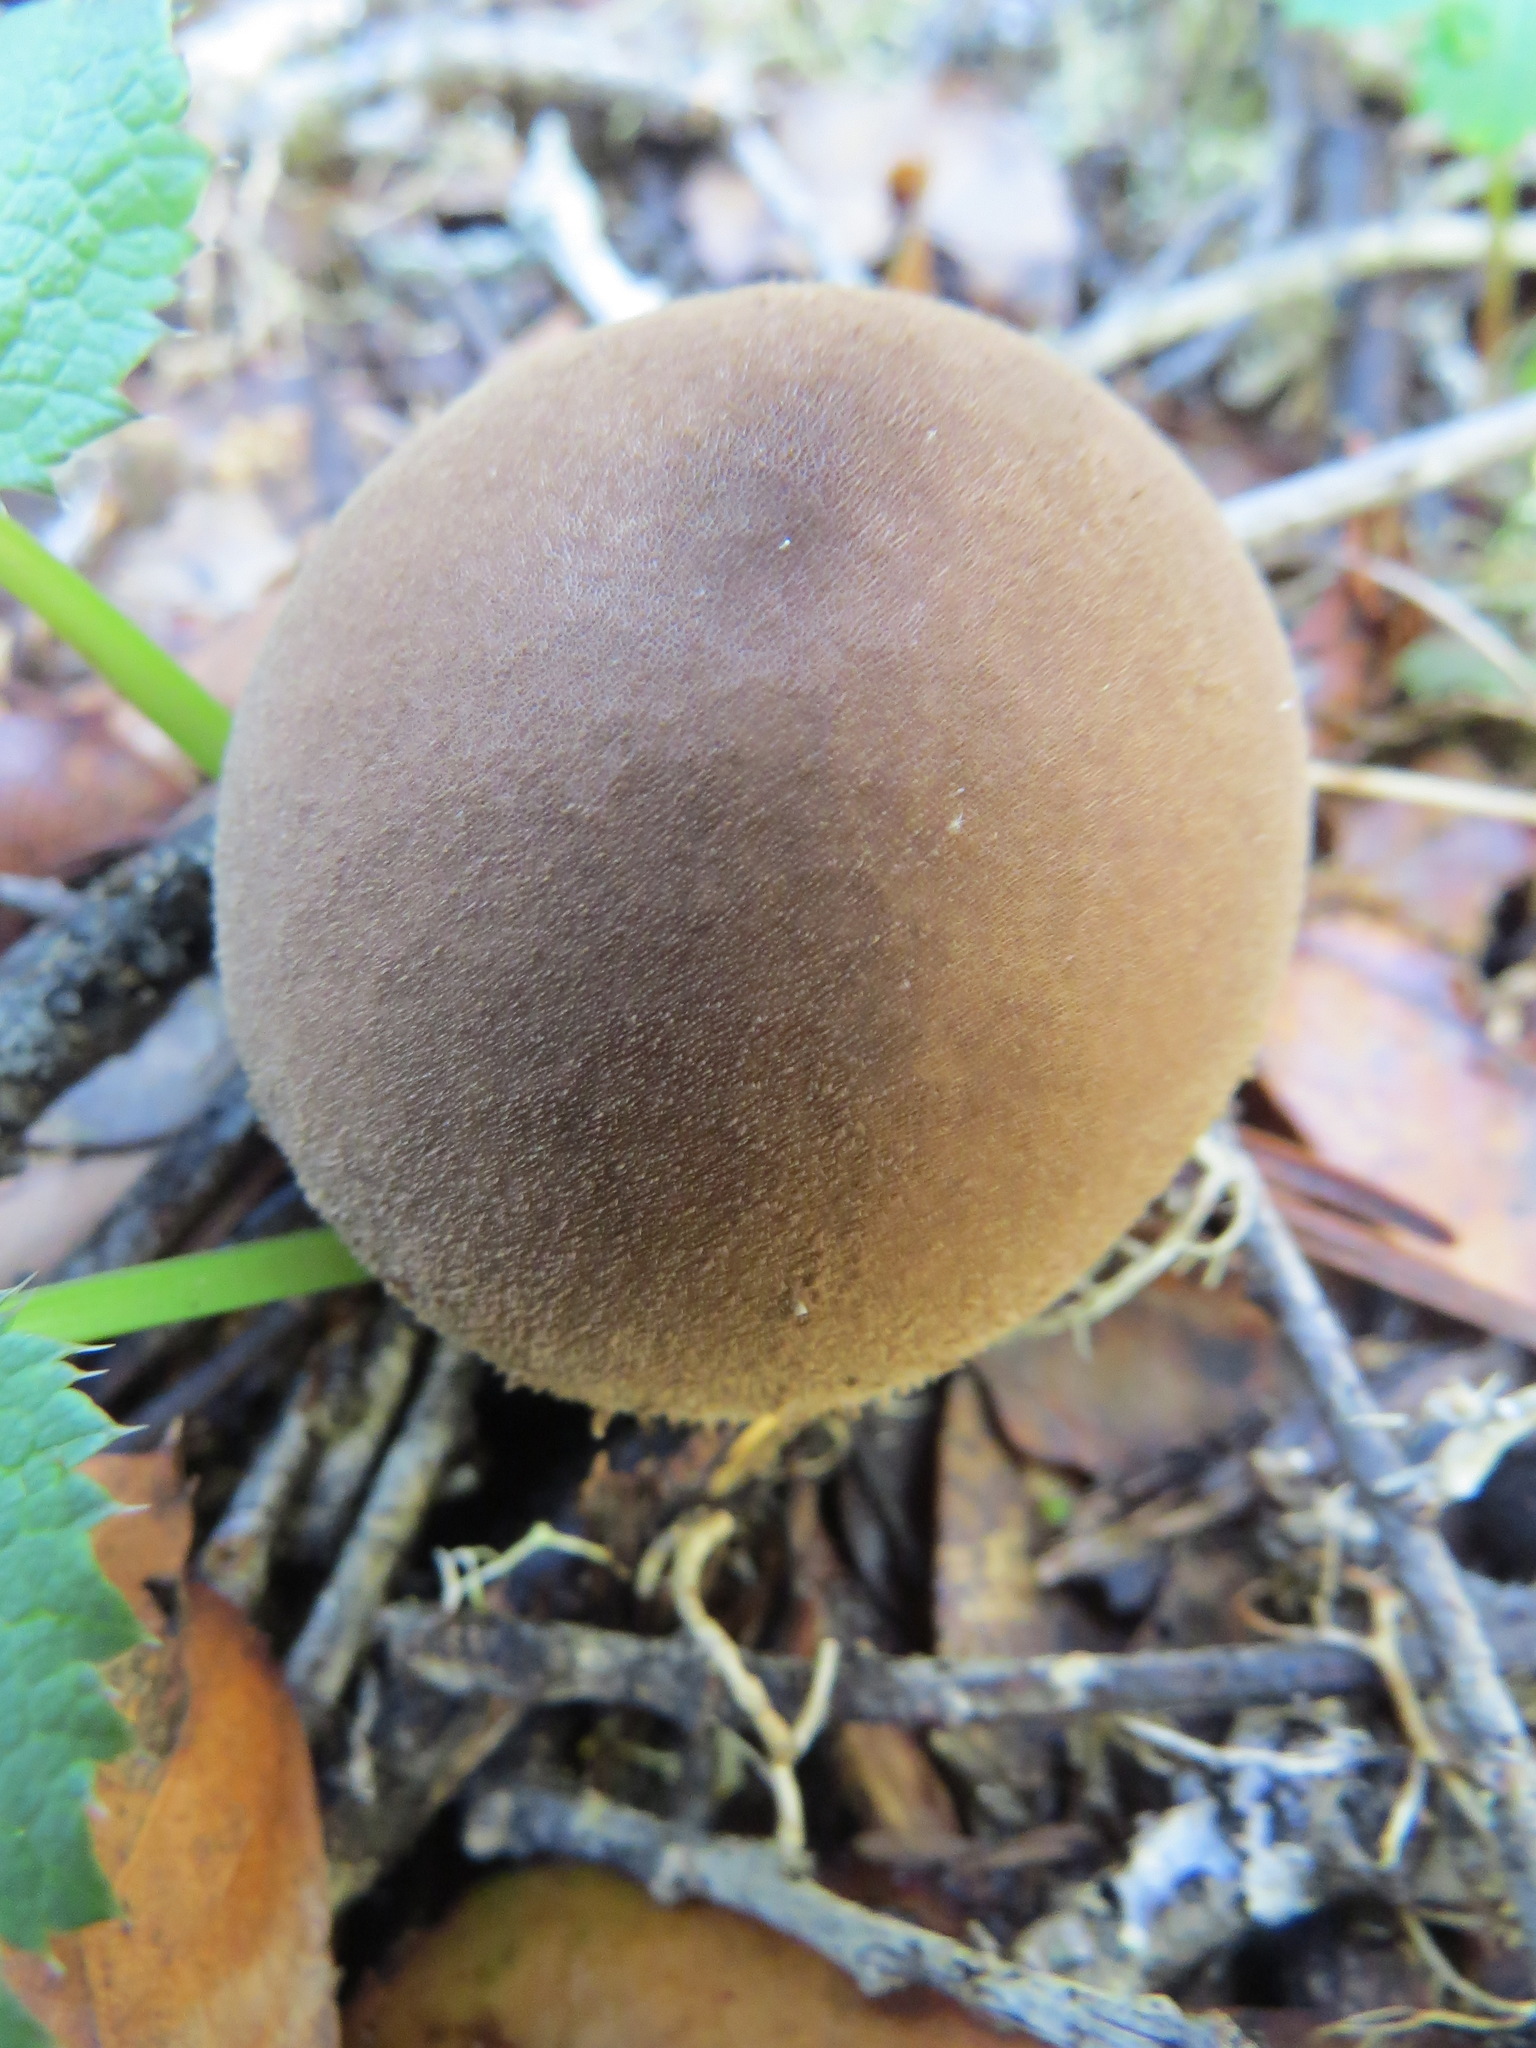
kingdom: Fungi
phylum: Basidiomycota
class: Agaricomycetes
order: Agaricales
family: Lycoperdaceae
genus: Lycoperdon
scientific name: Lycoperdon umbrinum
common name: Umber-brown puffball
